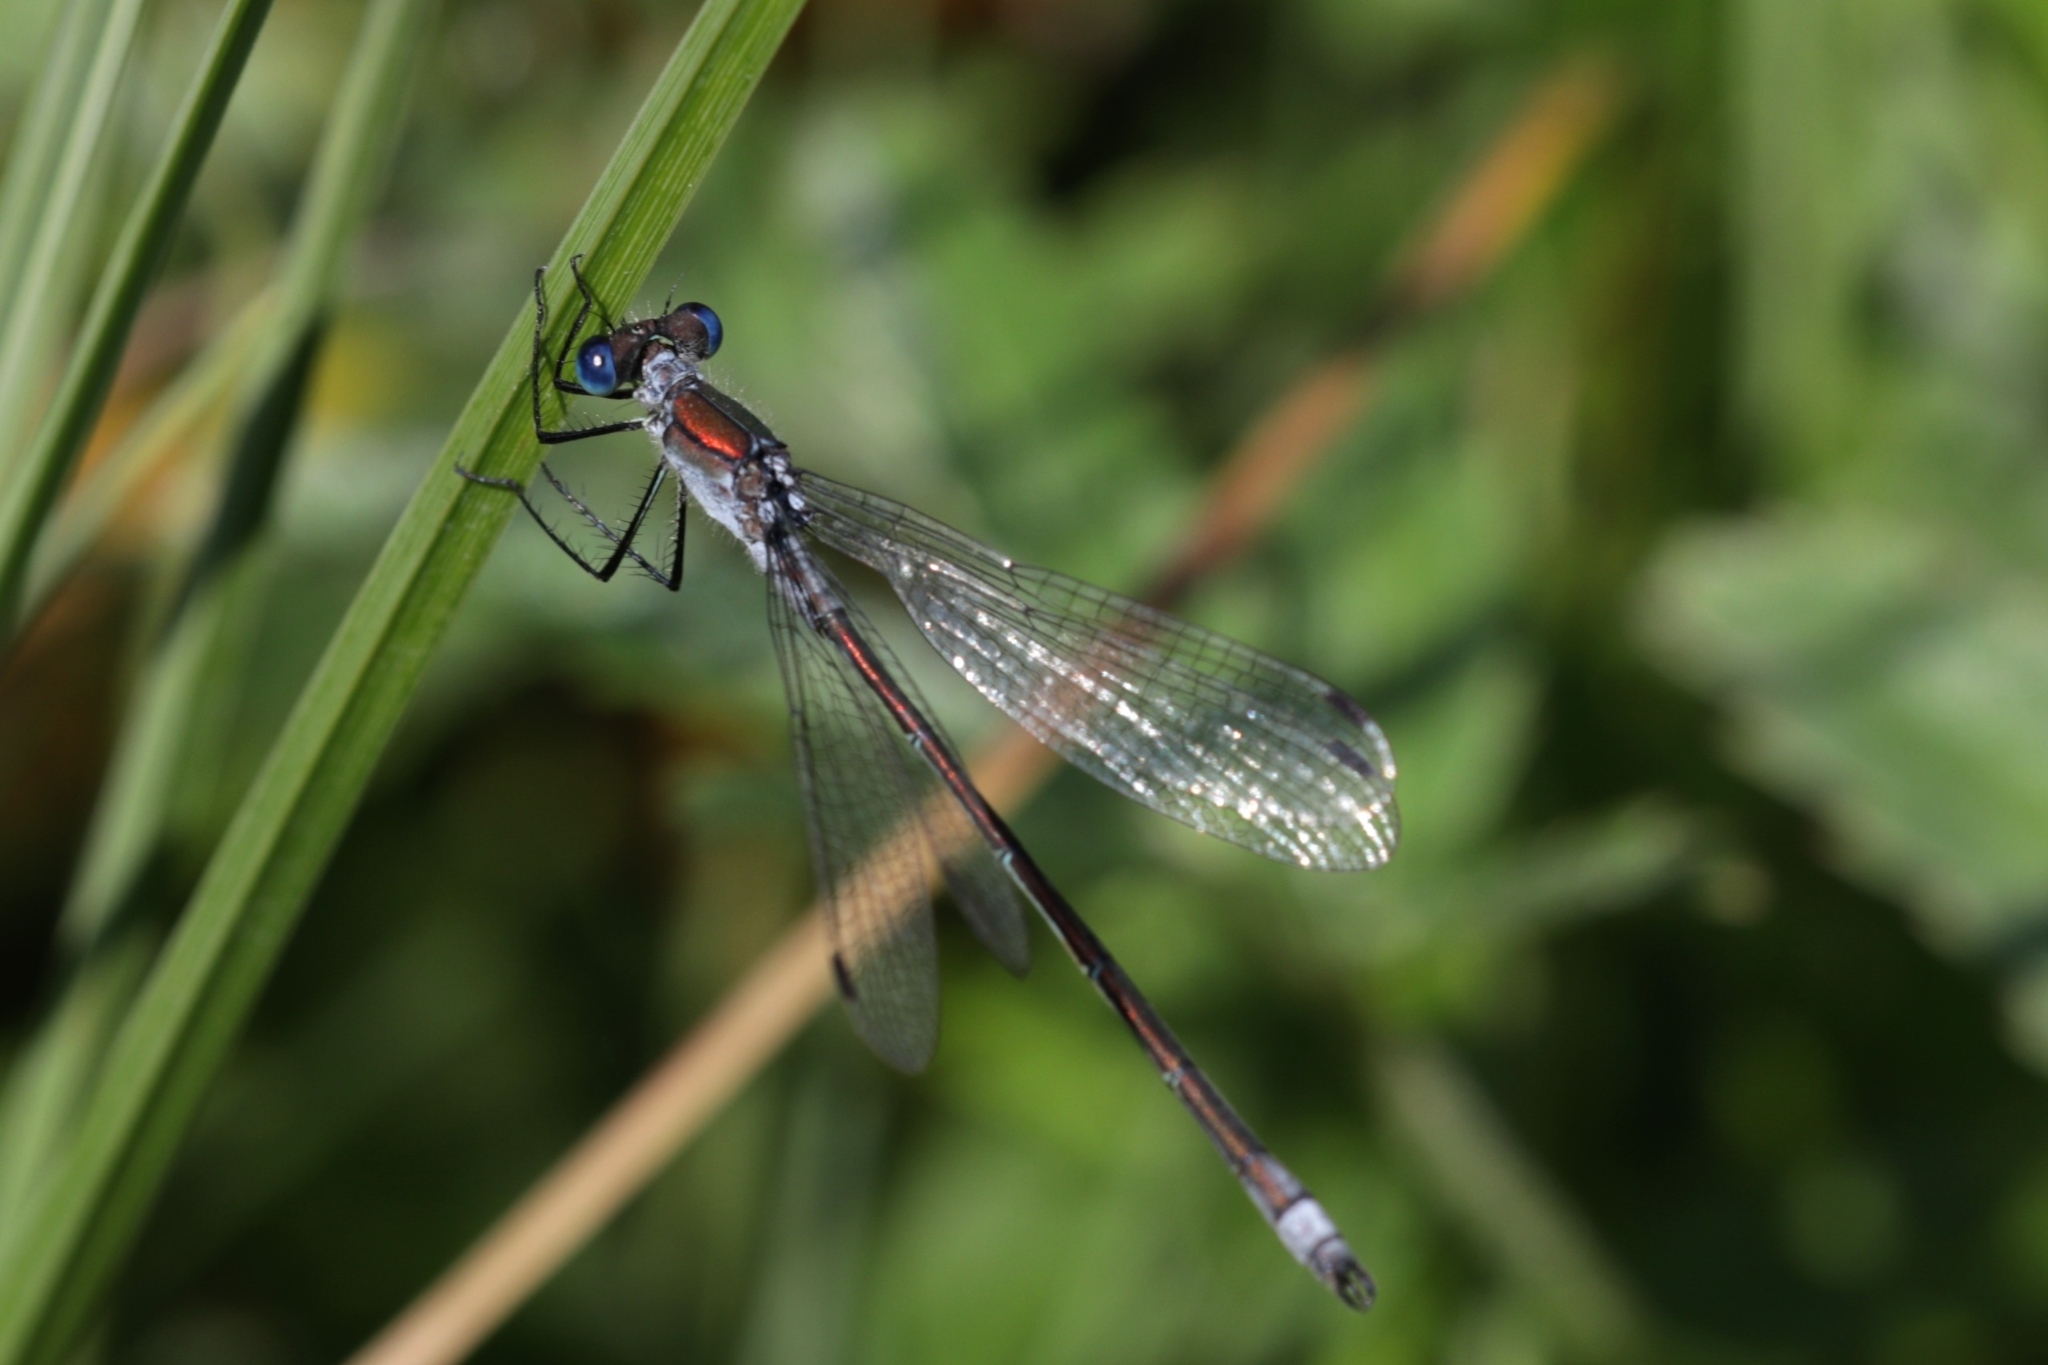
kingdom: Animalia
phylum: Arthropoda
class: Insecta
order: Odonata
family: Lestidae
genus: Lestes
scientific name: Lestes sponsa
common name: Common spreadwing
